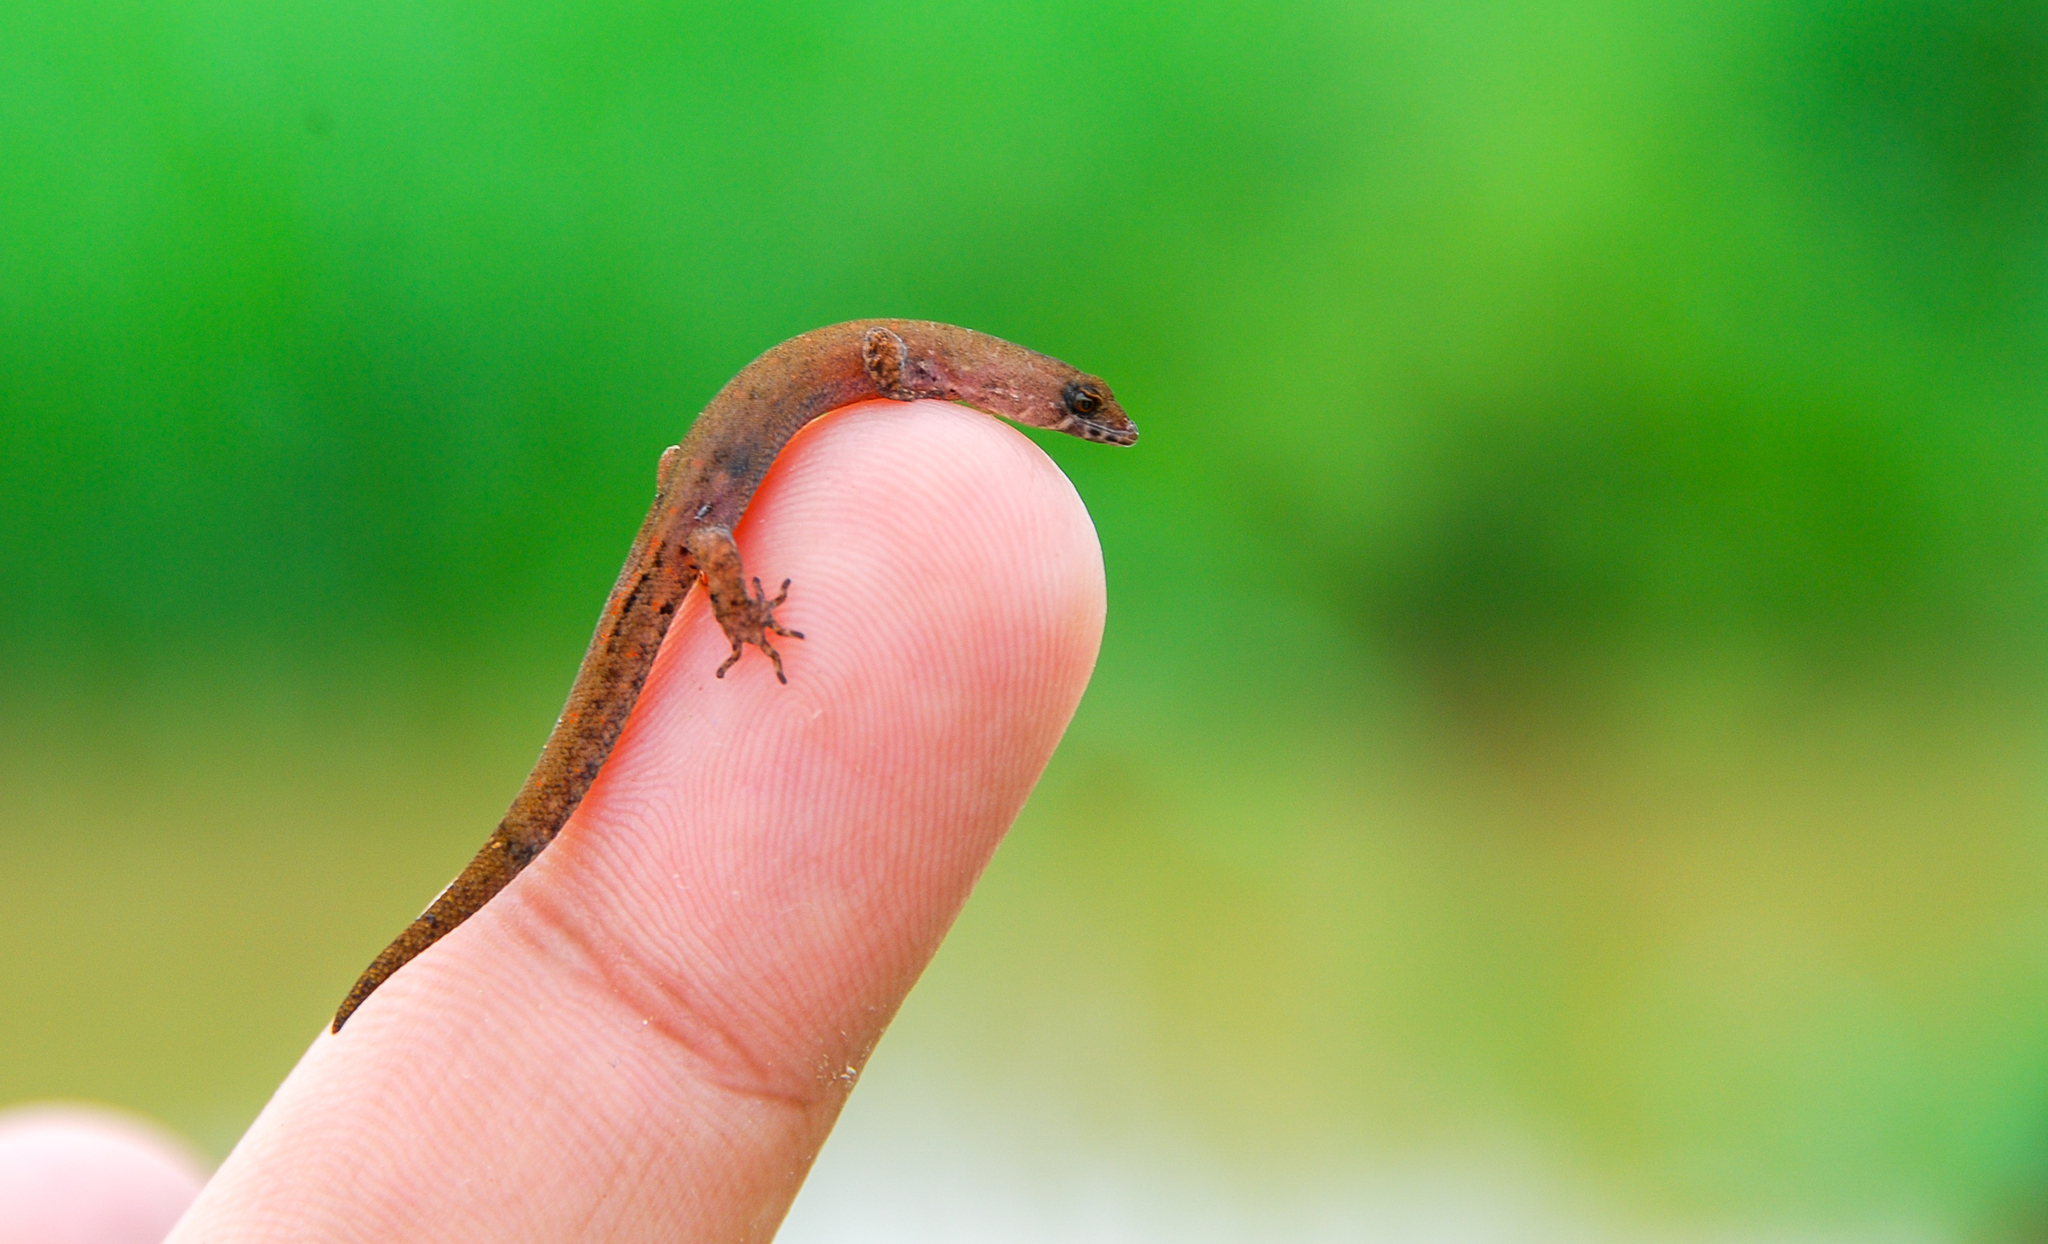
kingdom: Animalia
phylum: Chordata
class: Squamata
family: Sphaerodactylidae
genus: Pseudogonatodes
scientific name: Pseudogonatodes guianensis
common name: Amazon pigmy gecko
